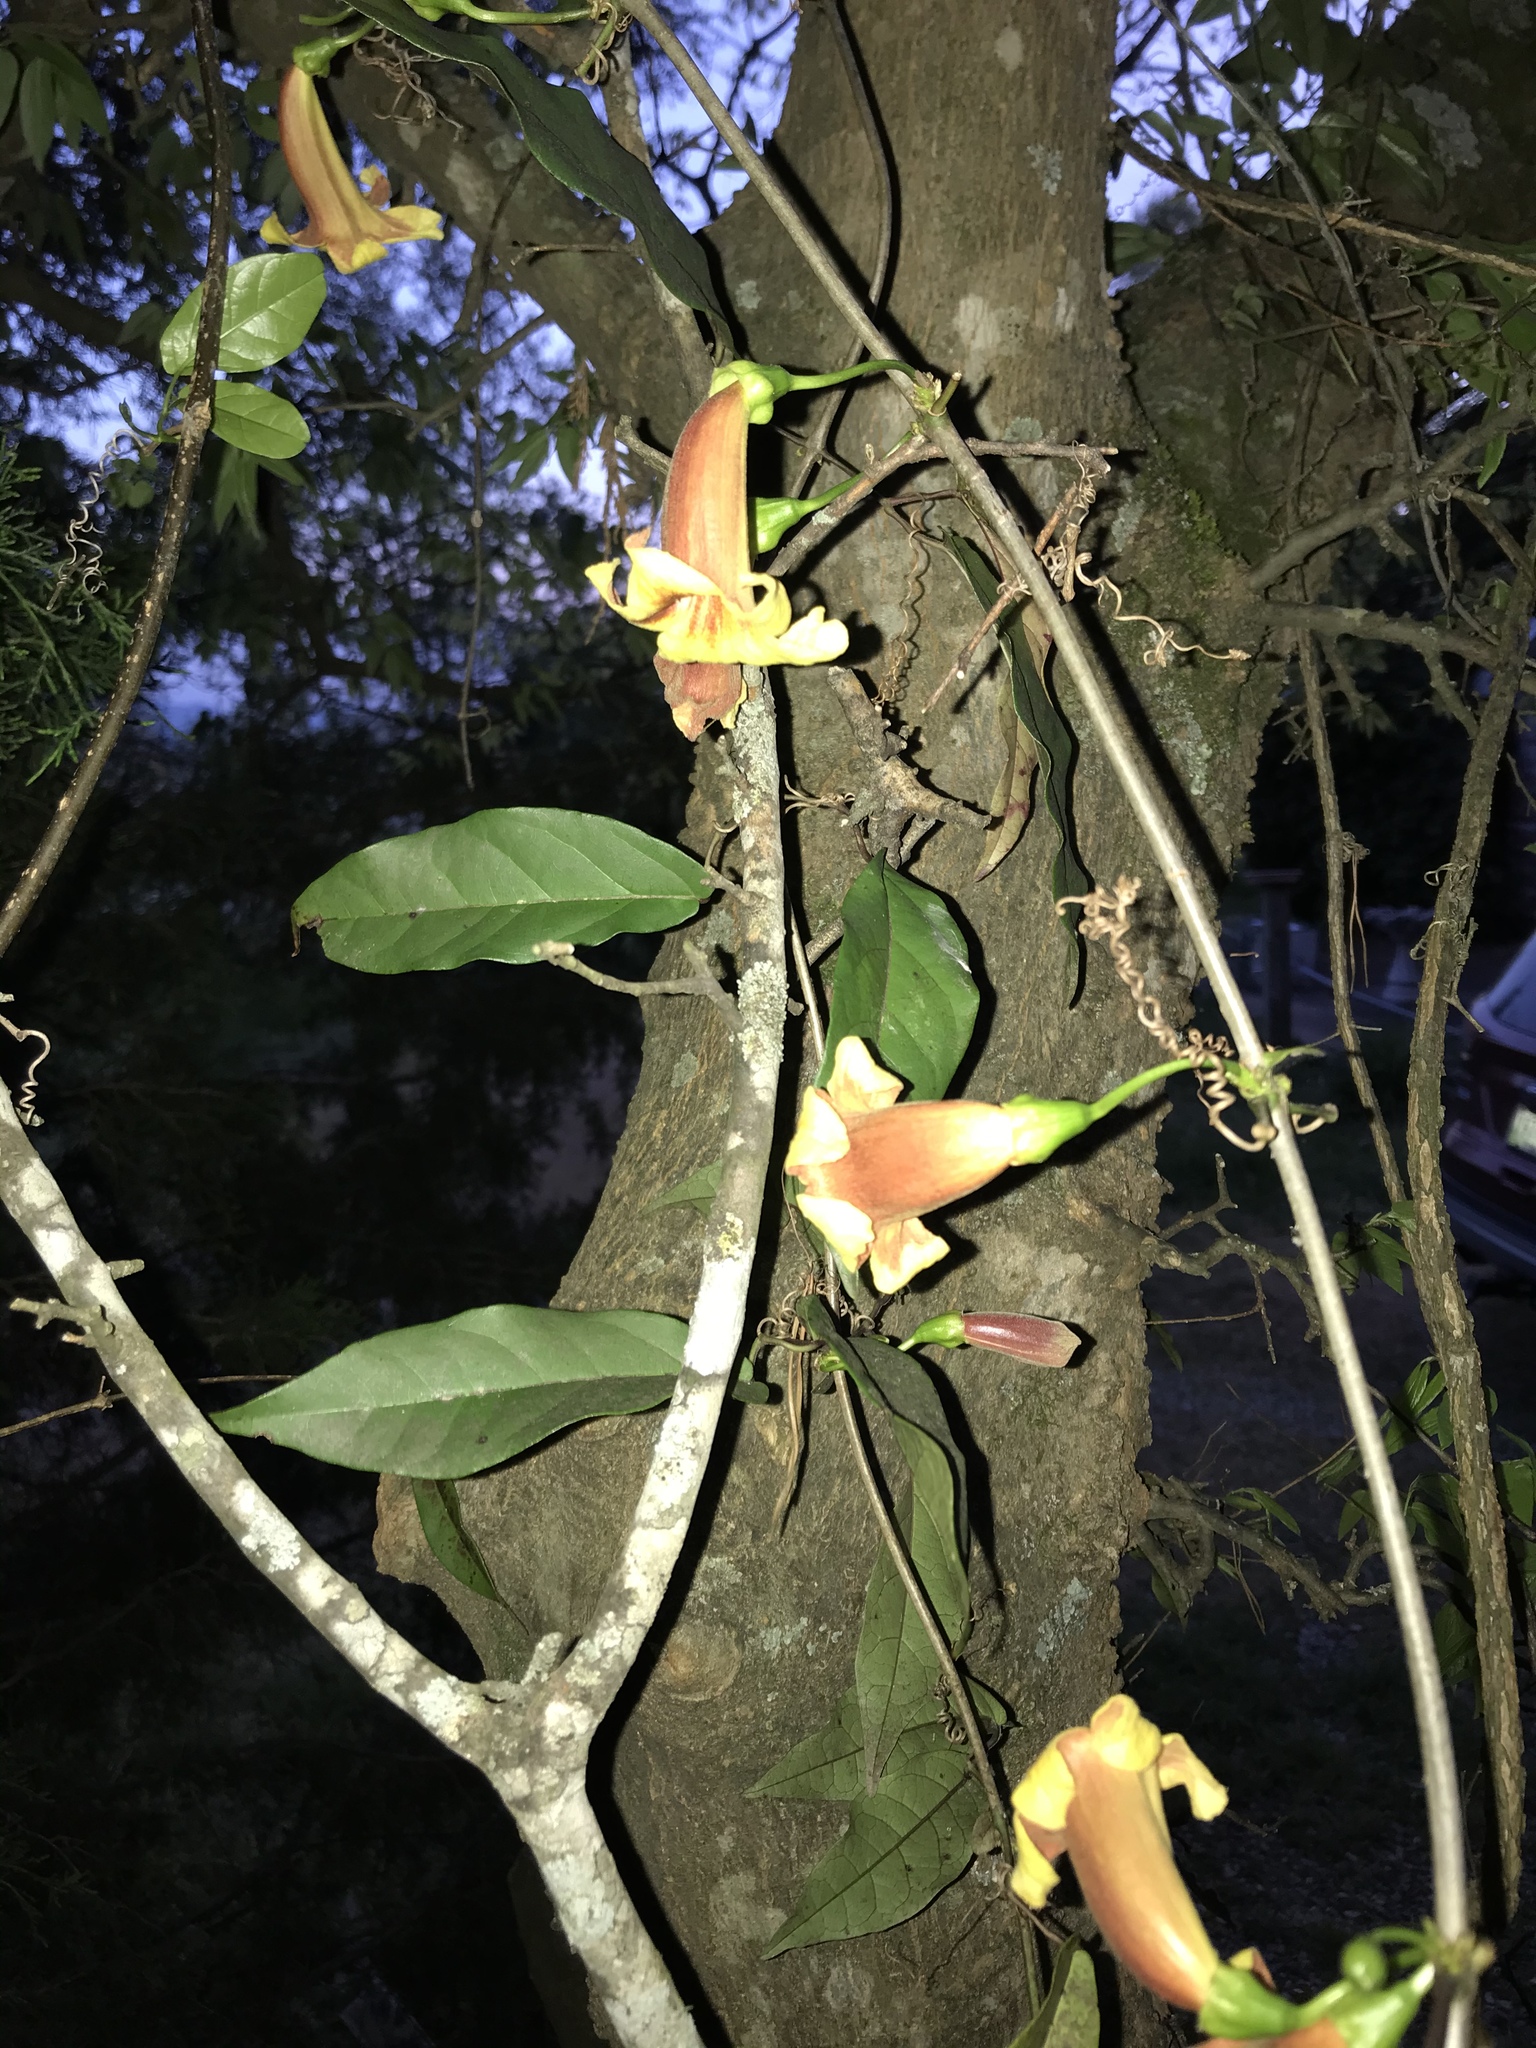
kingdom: Plantae
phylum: Tracheophyta
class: Magnoliopsida
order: Lamiales
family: Bignoniaceae
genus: Bignonia
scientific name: Bignonia capreolata
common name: Crossvine
